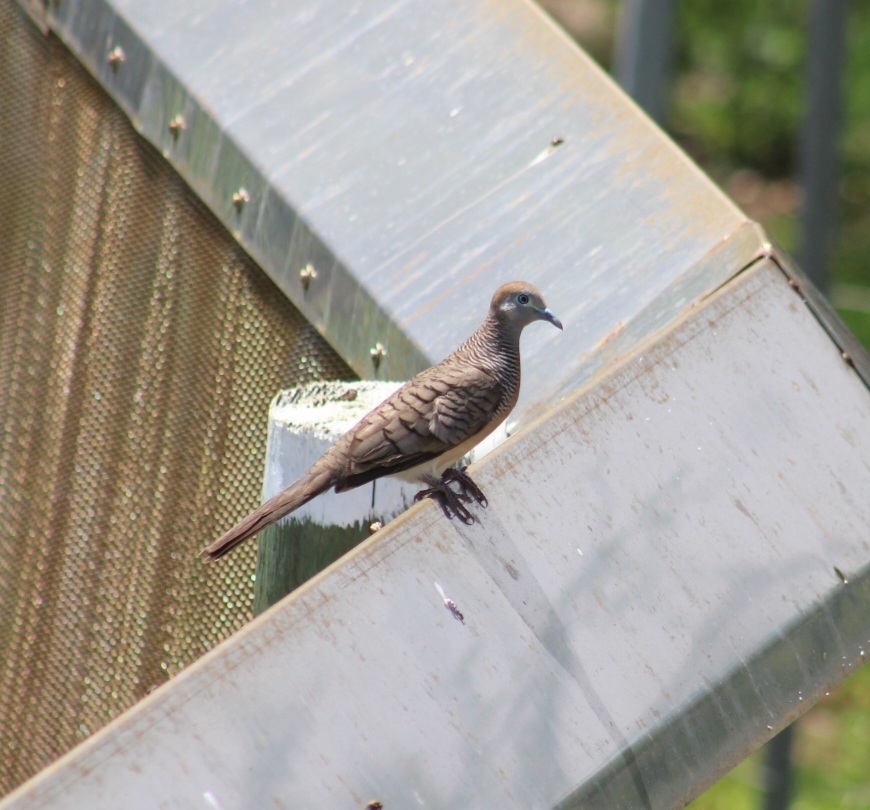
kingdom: Animalia
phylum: Chordata
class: Aves
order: Columbiformes
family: Columbidae
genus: Geopelia
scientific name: Geopelia striata
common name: Zebra dove
